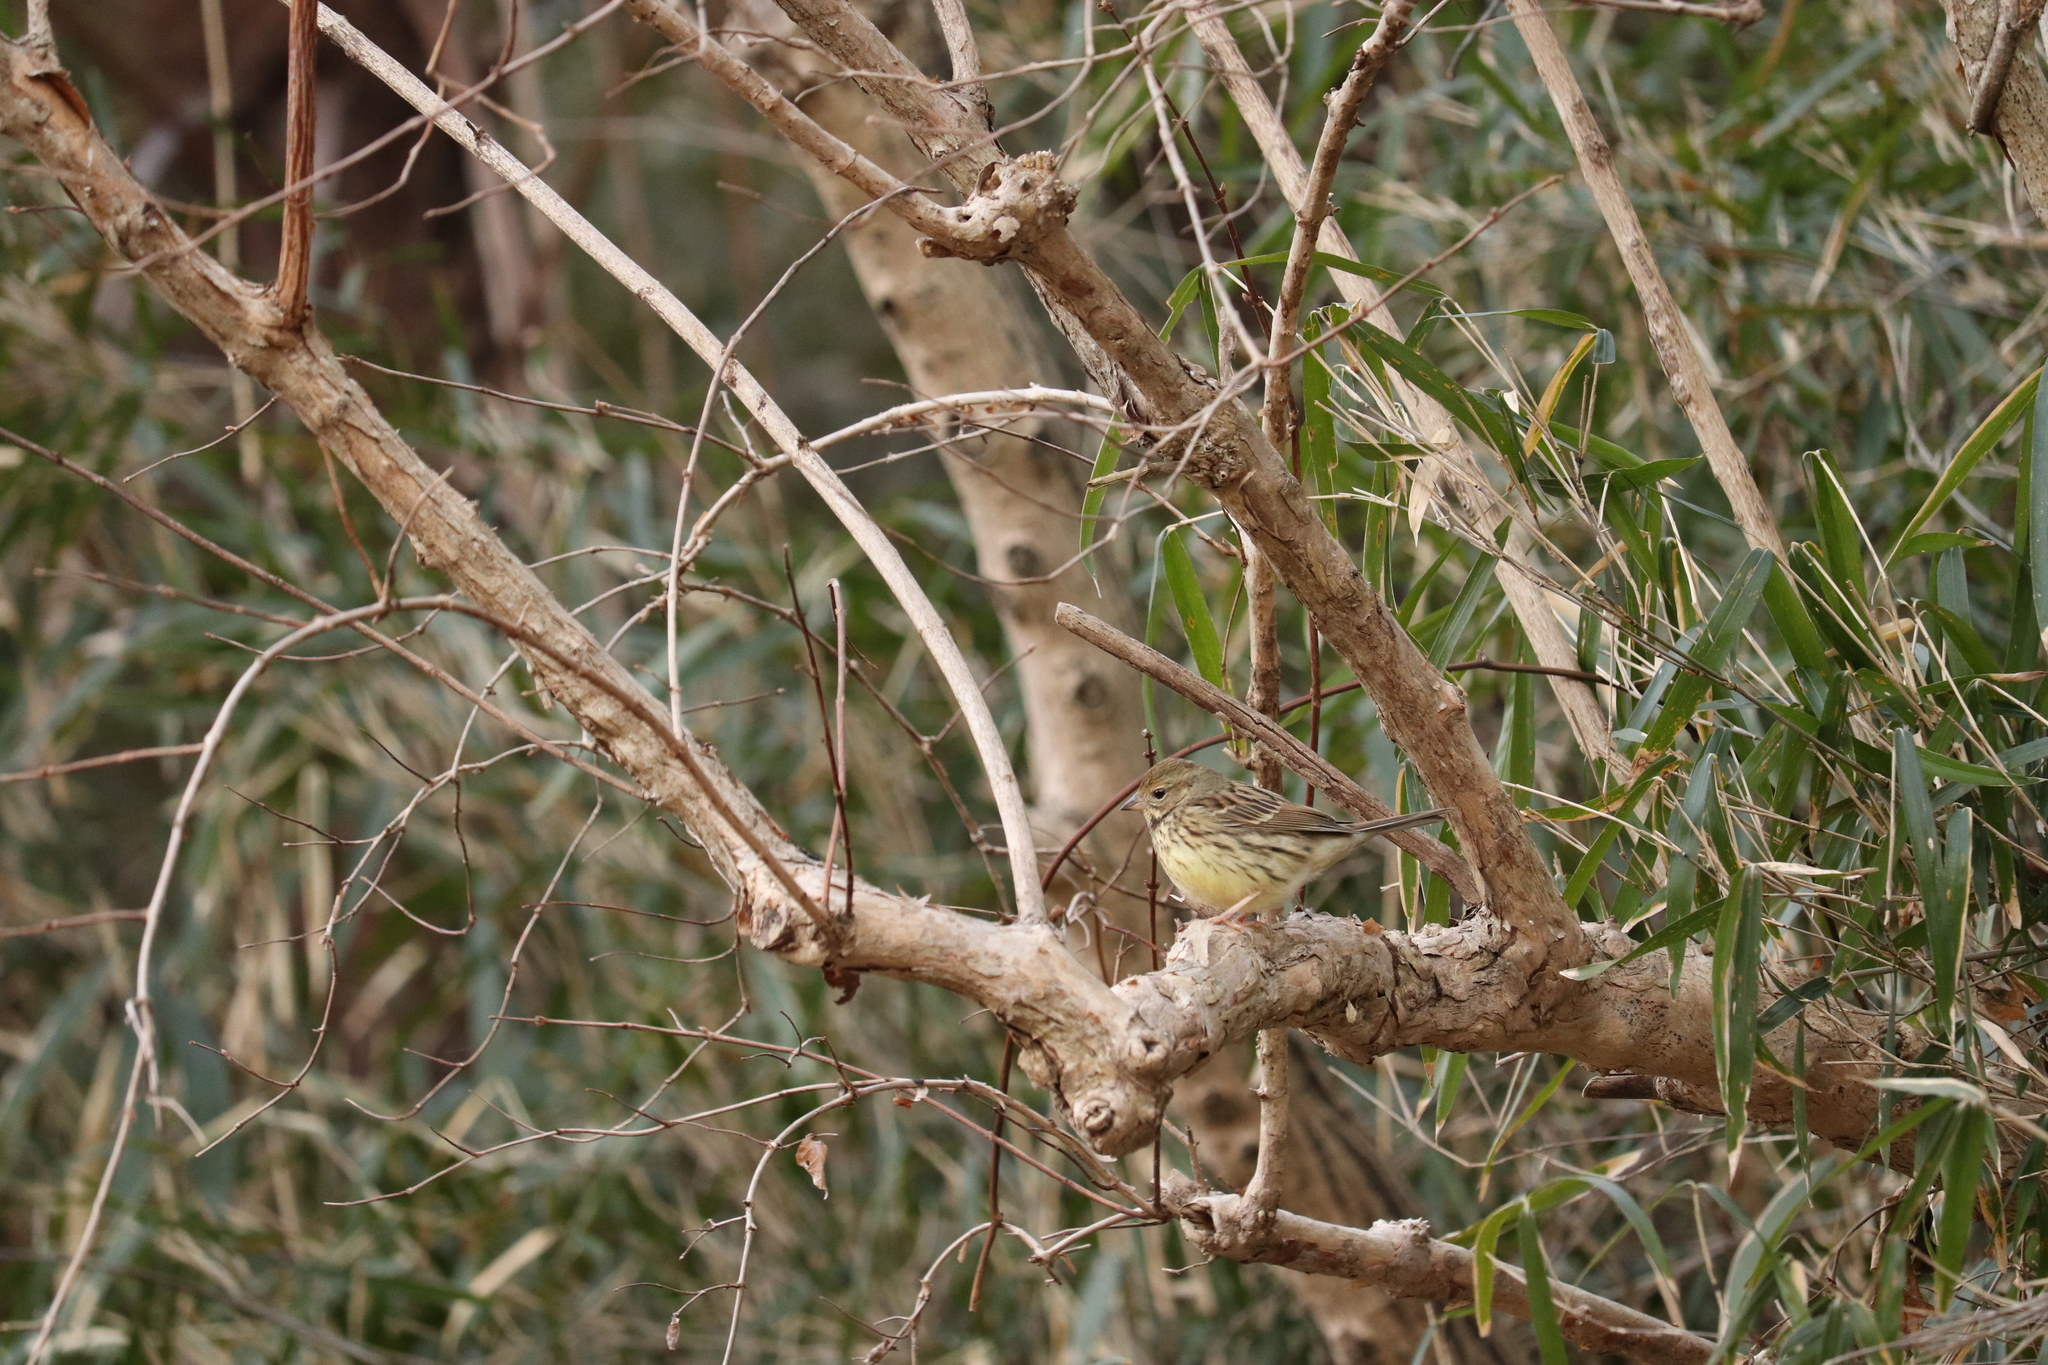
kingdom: Animalia
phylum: Chordata
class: Aves
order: Passeriformes
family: Emberizidae
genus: Emberiza
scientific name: Emberiza personata
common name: Masked bunting
